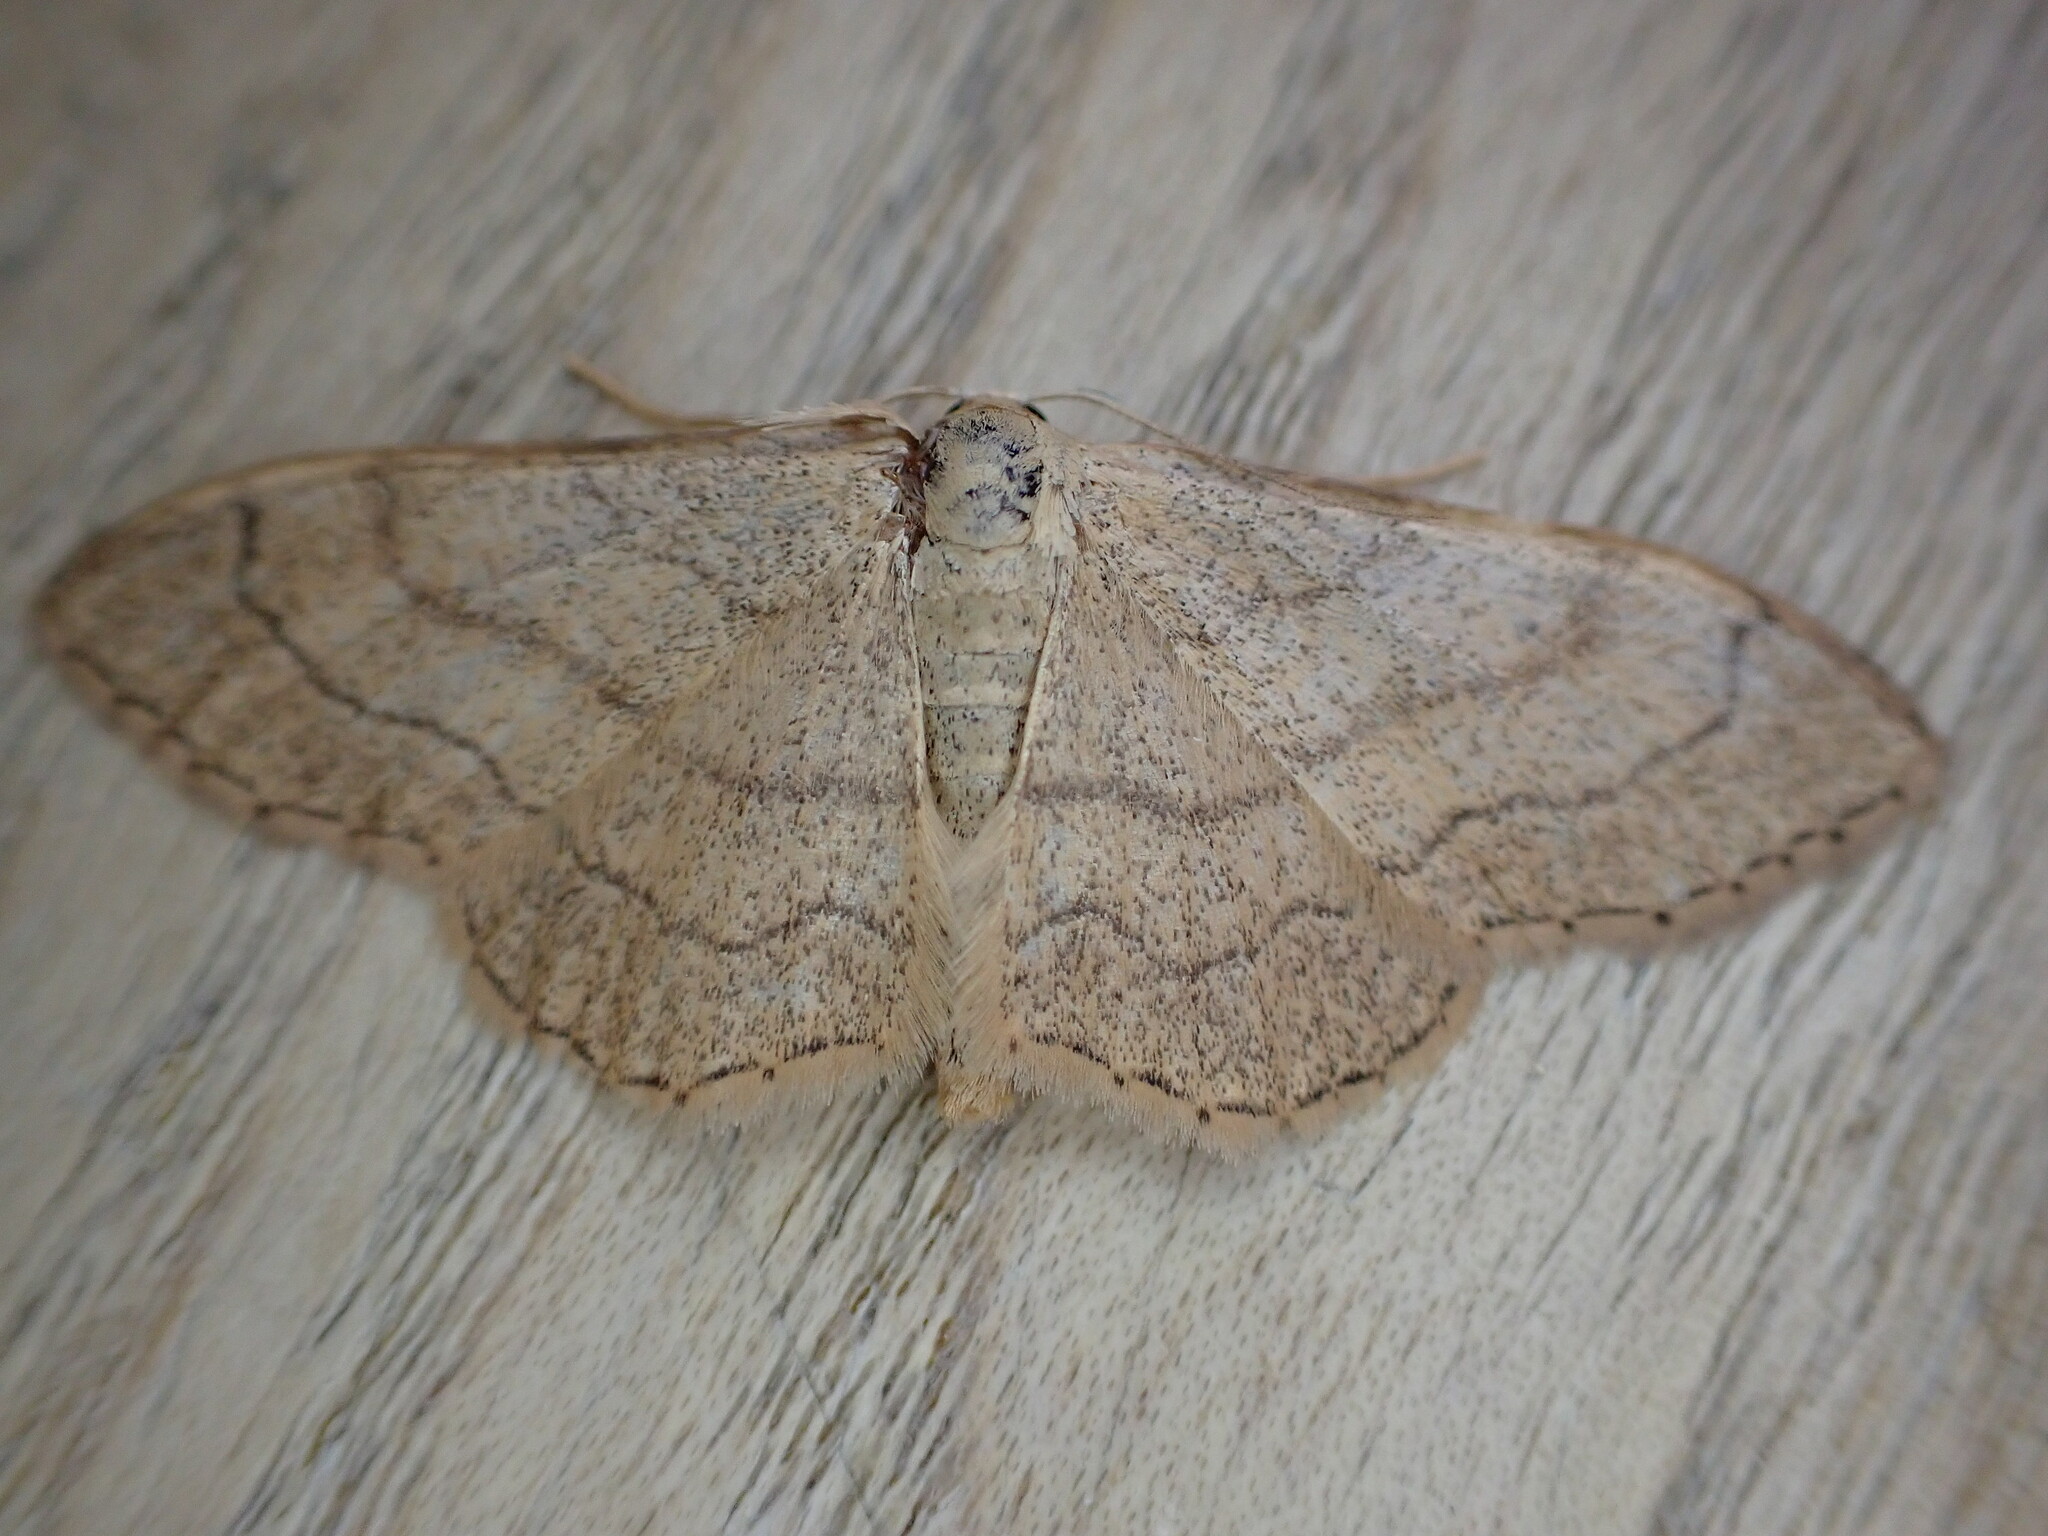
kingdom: Animalia
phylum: Arthropoda
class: Insecta
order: Lepidoptera
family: Geometridae
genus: Idaea
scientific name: Idaea aversata
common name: Riband wave
